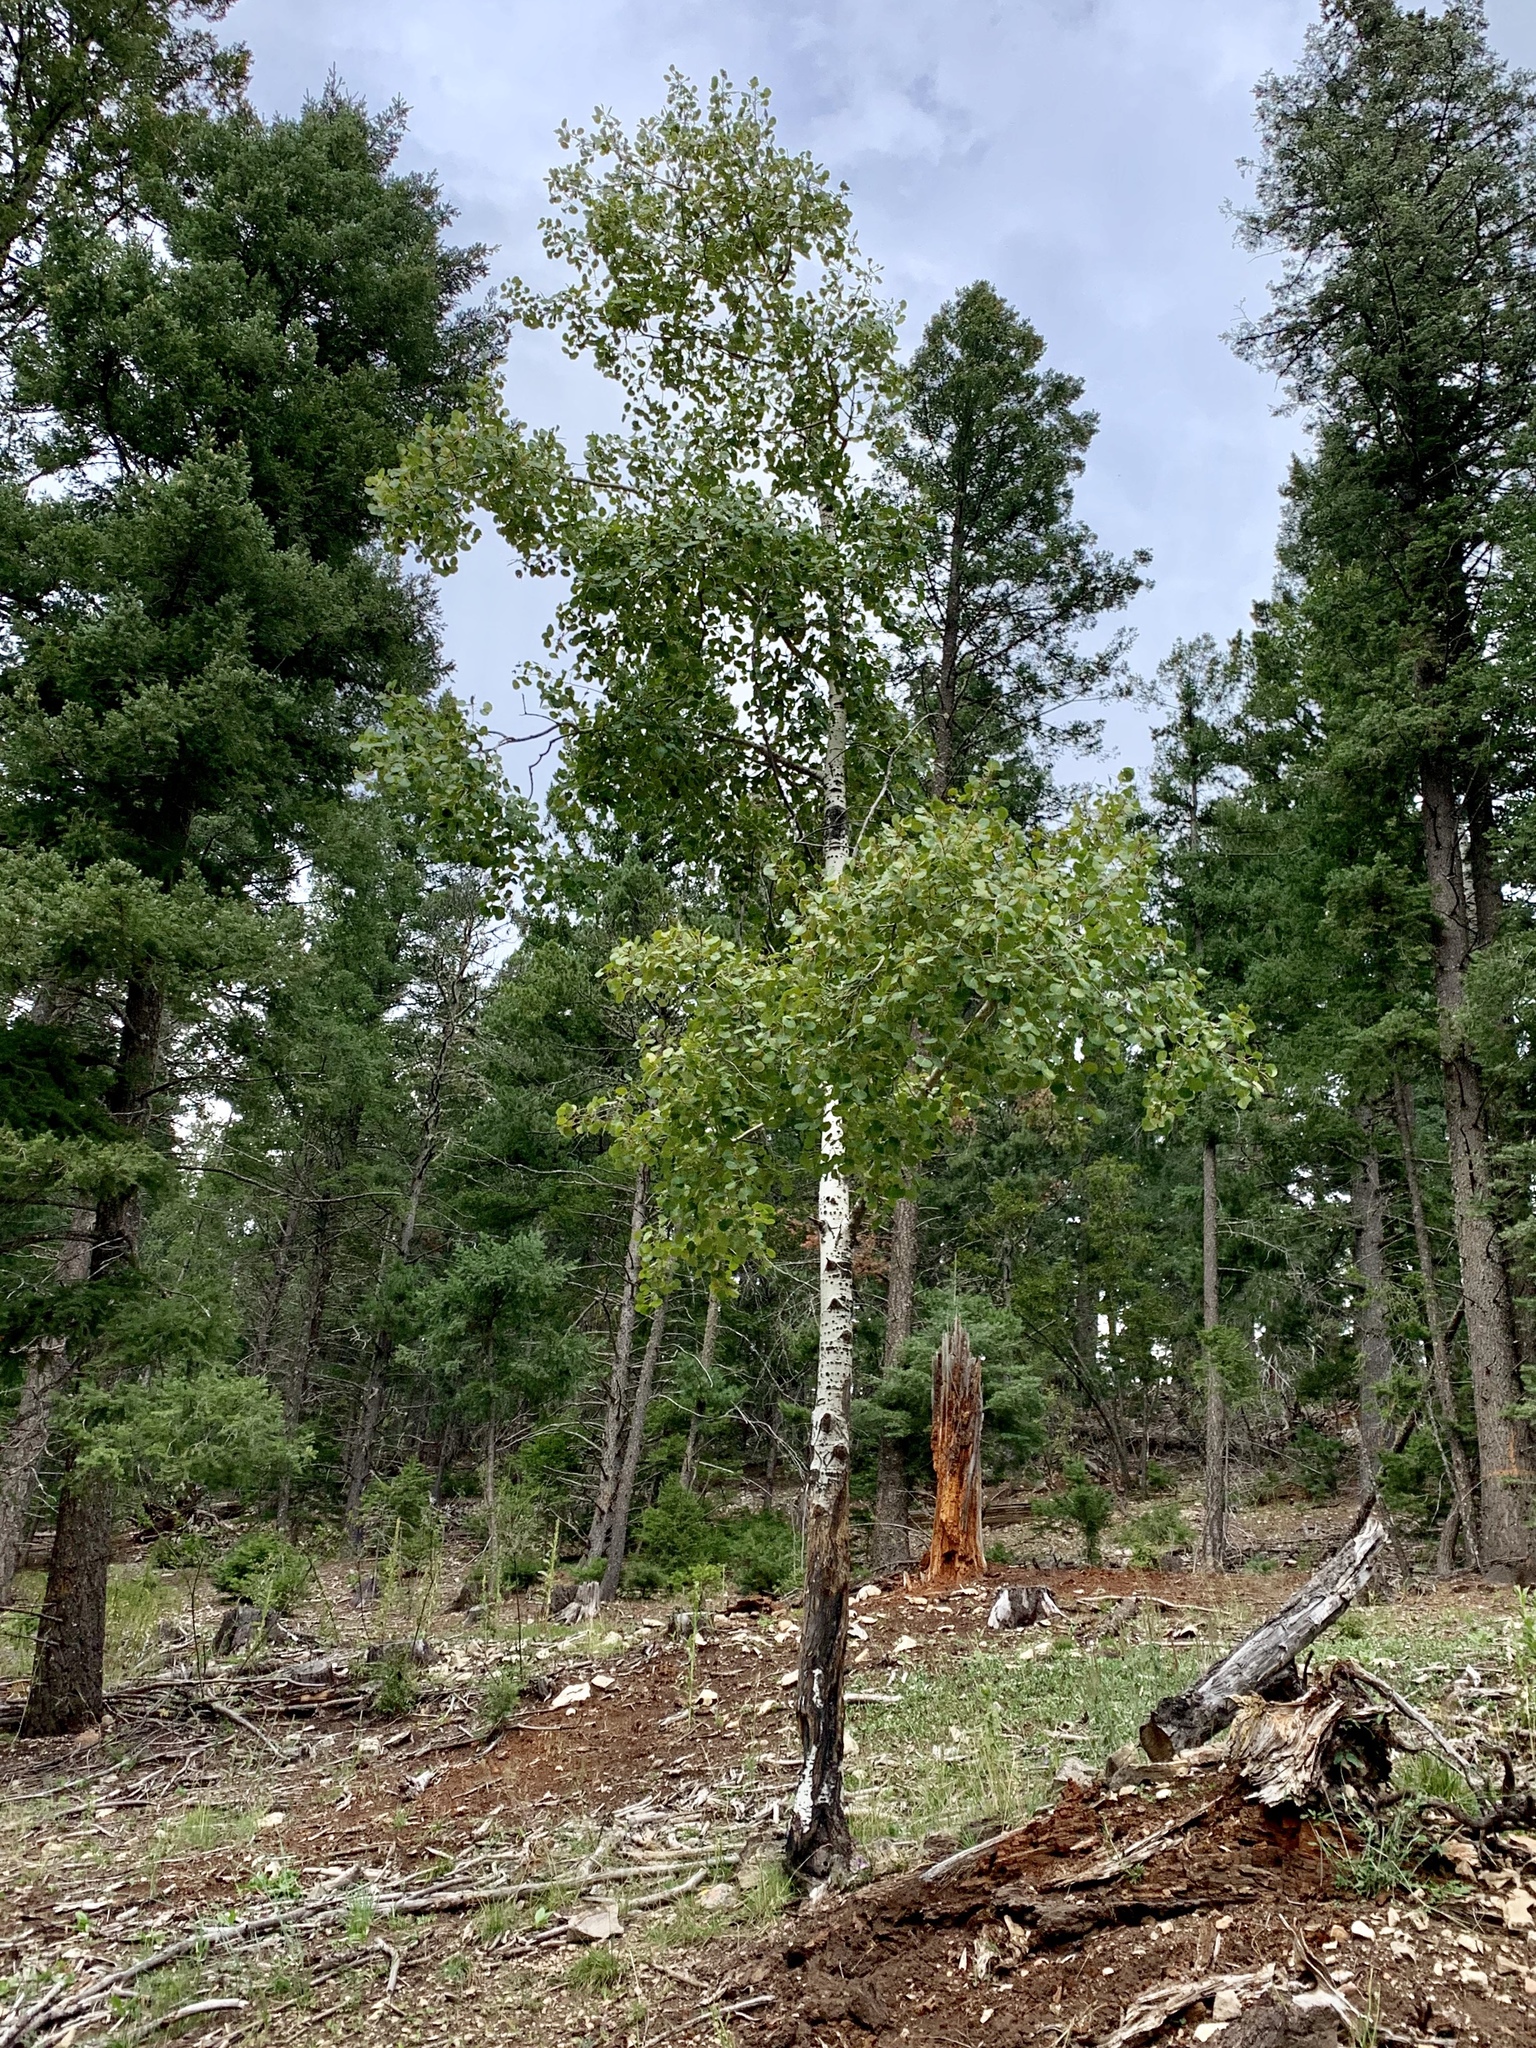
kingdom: Plantae
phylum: Tracheophyta
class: Magnoliopsida
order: Malpighiales
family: Salicaceae
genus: Populus
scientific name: Populus tremuloides
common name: Quaking aspen
